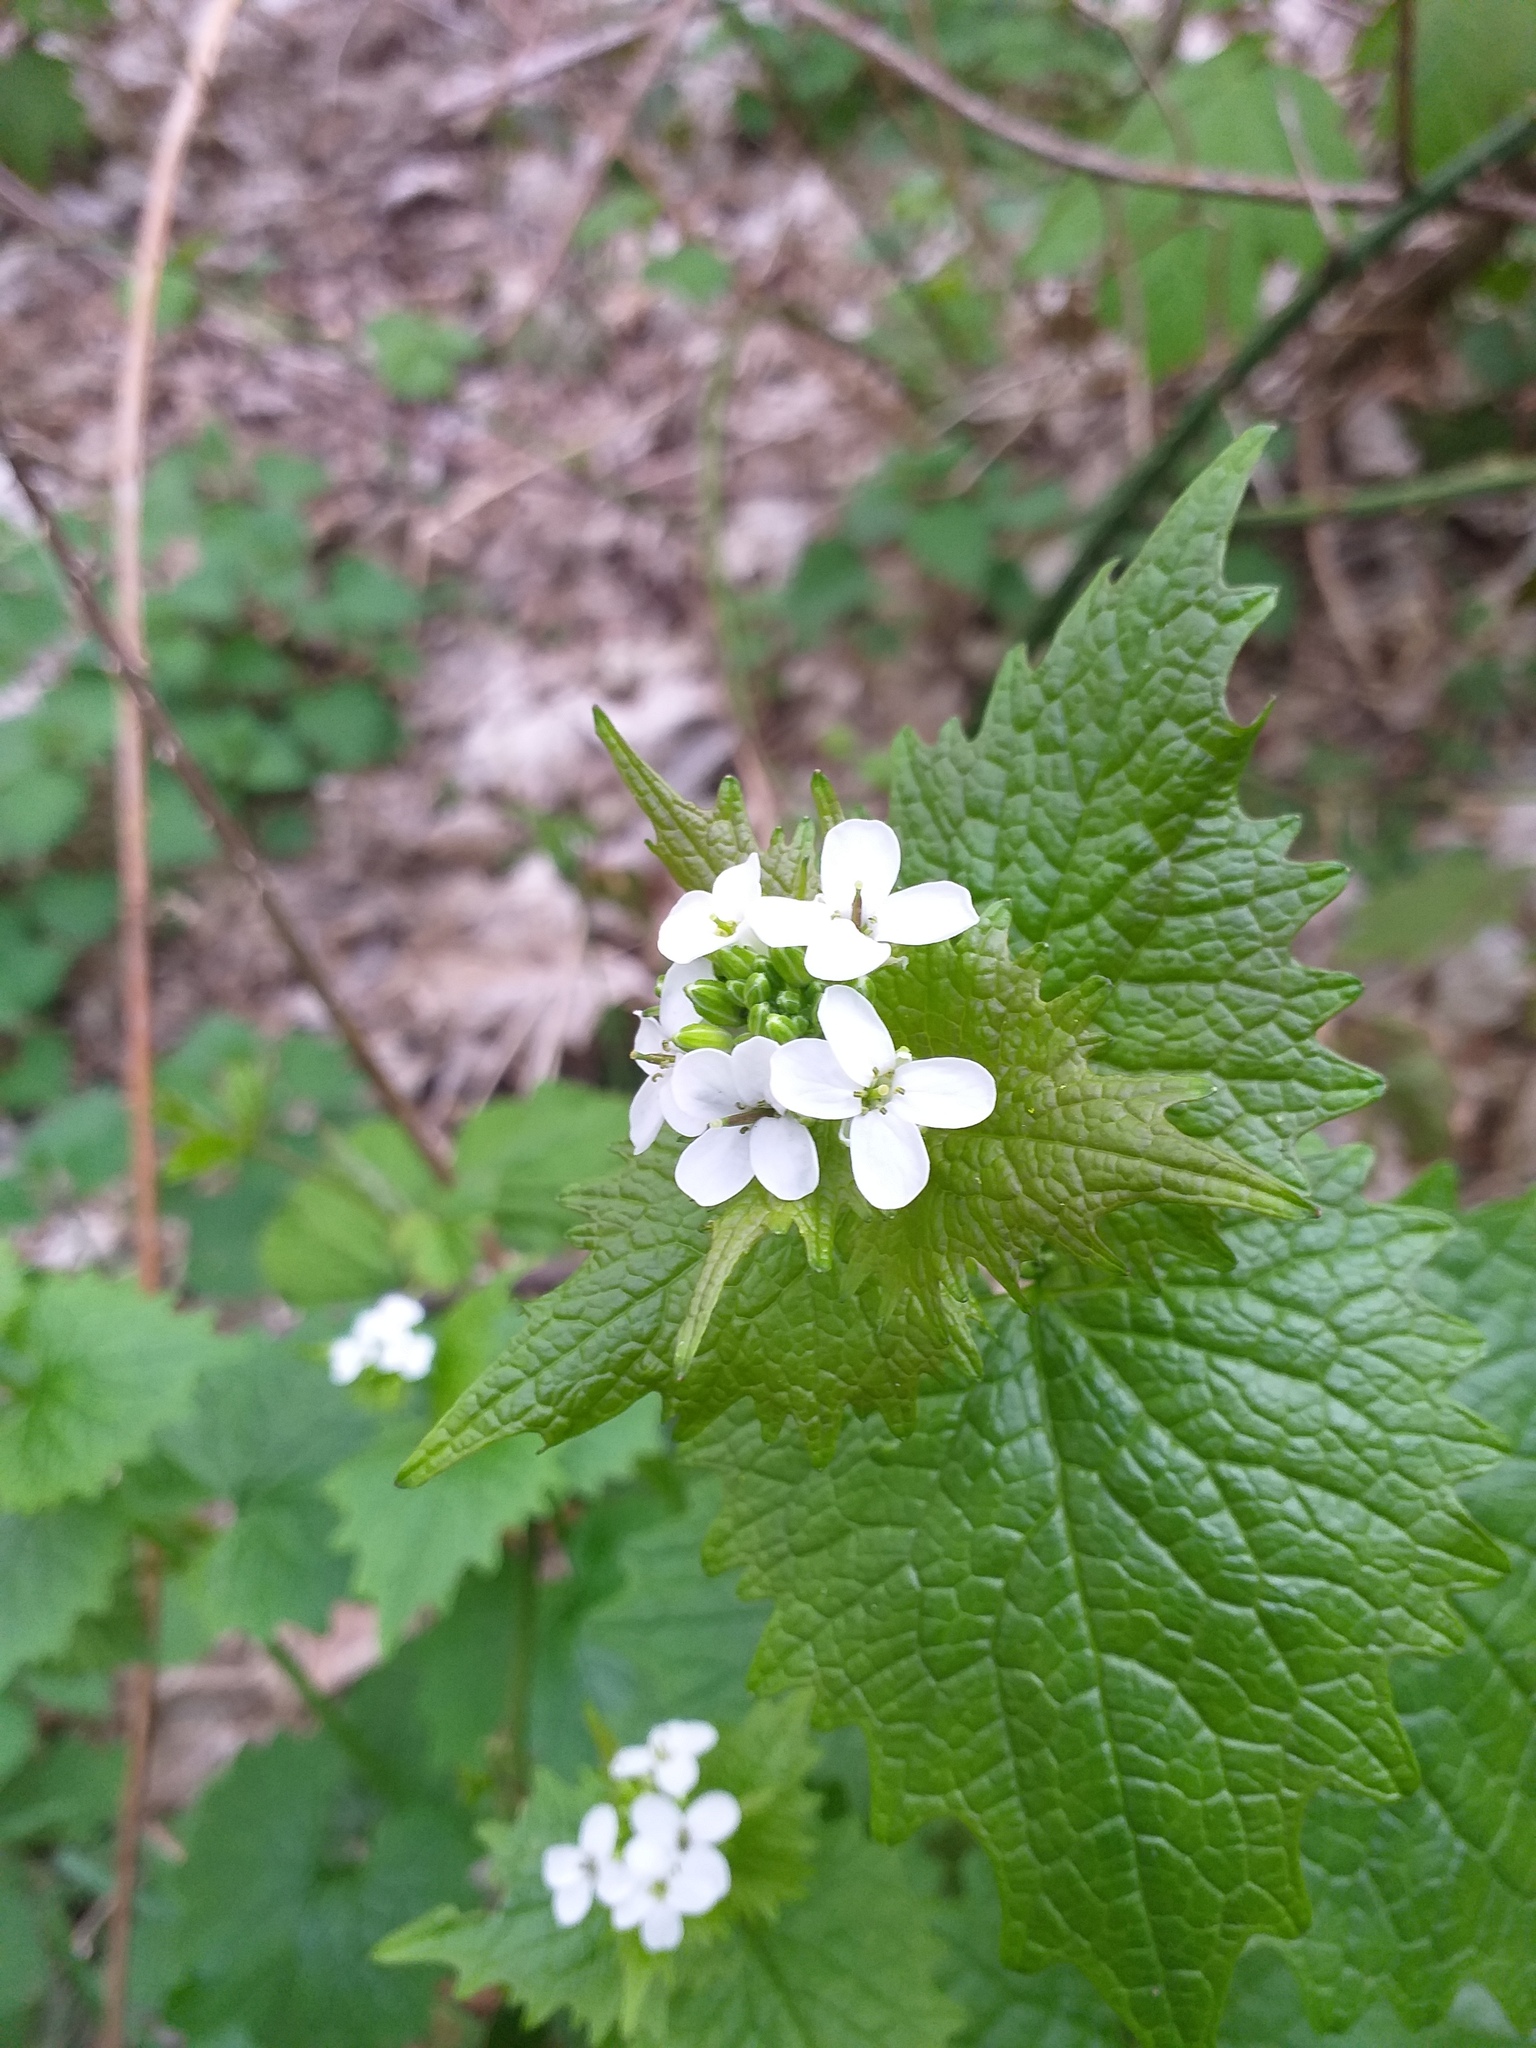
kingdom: Plantae
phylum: Tracheophyta
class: Magnoliopsida
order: Brassicales
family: Brassicaceae
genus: Alliaria
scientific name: Alliaria petiolata
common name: Garlic mustard
